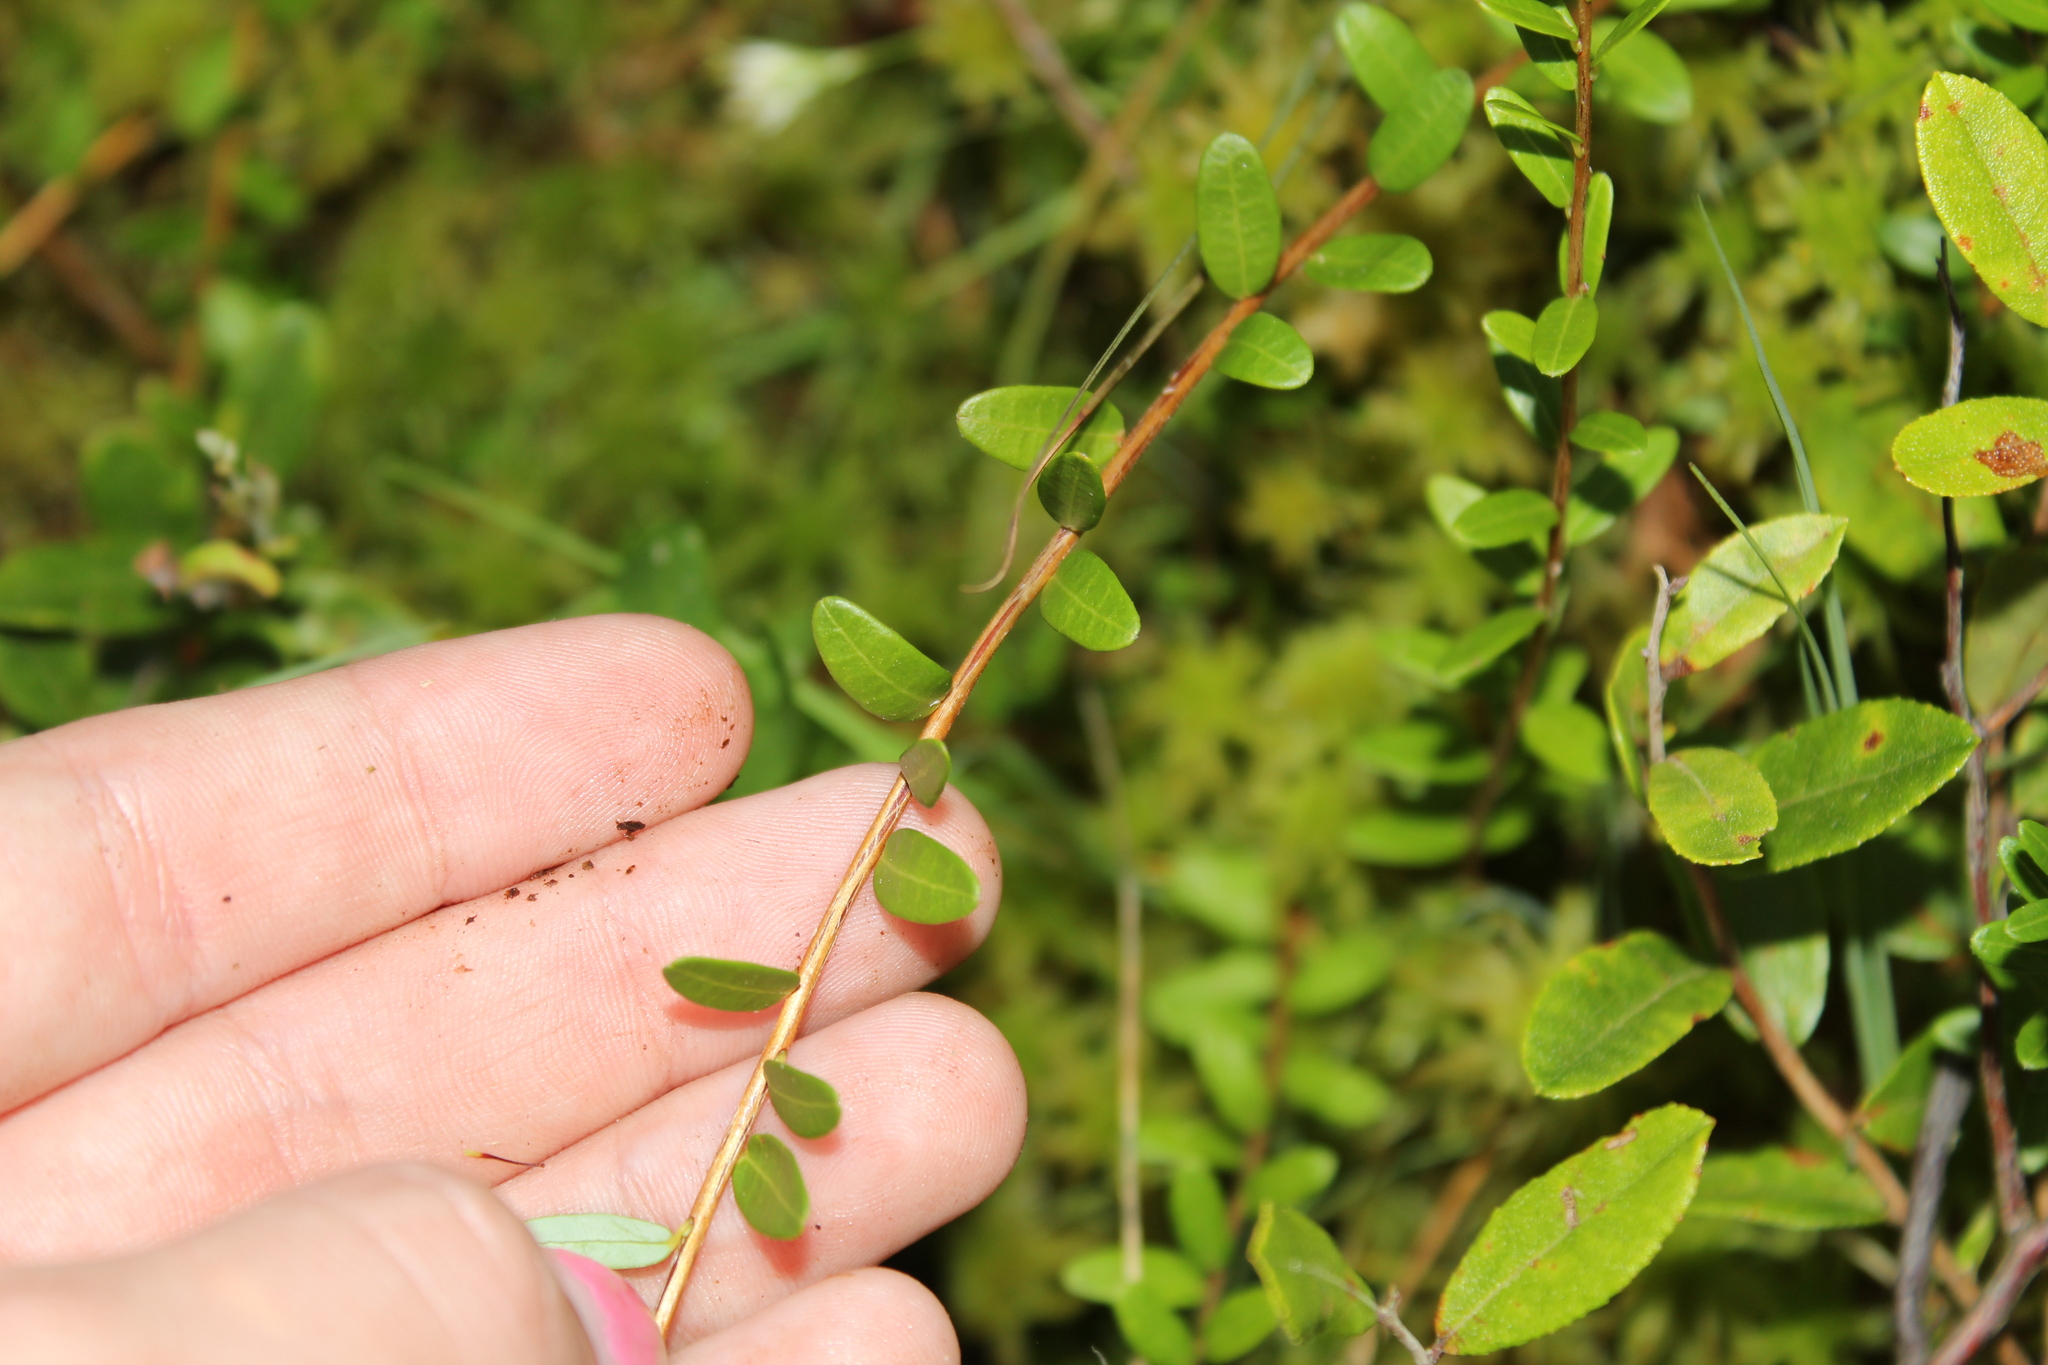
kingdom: Plantae
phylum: Tracheophyta
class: Magnoliopsida
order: Ericales
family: Ericaceae
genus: Vaccinium
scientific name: Vaccinium macrocarpon
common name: American cranberry
